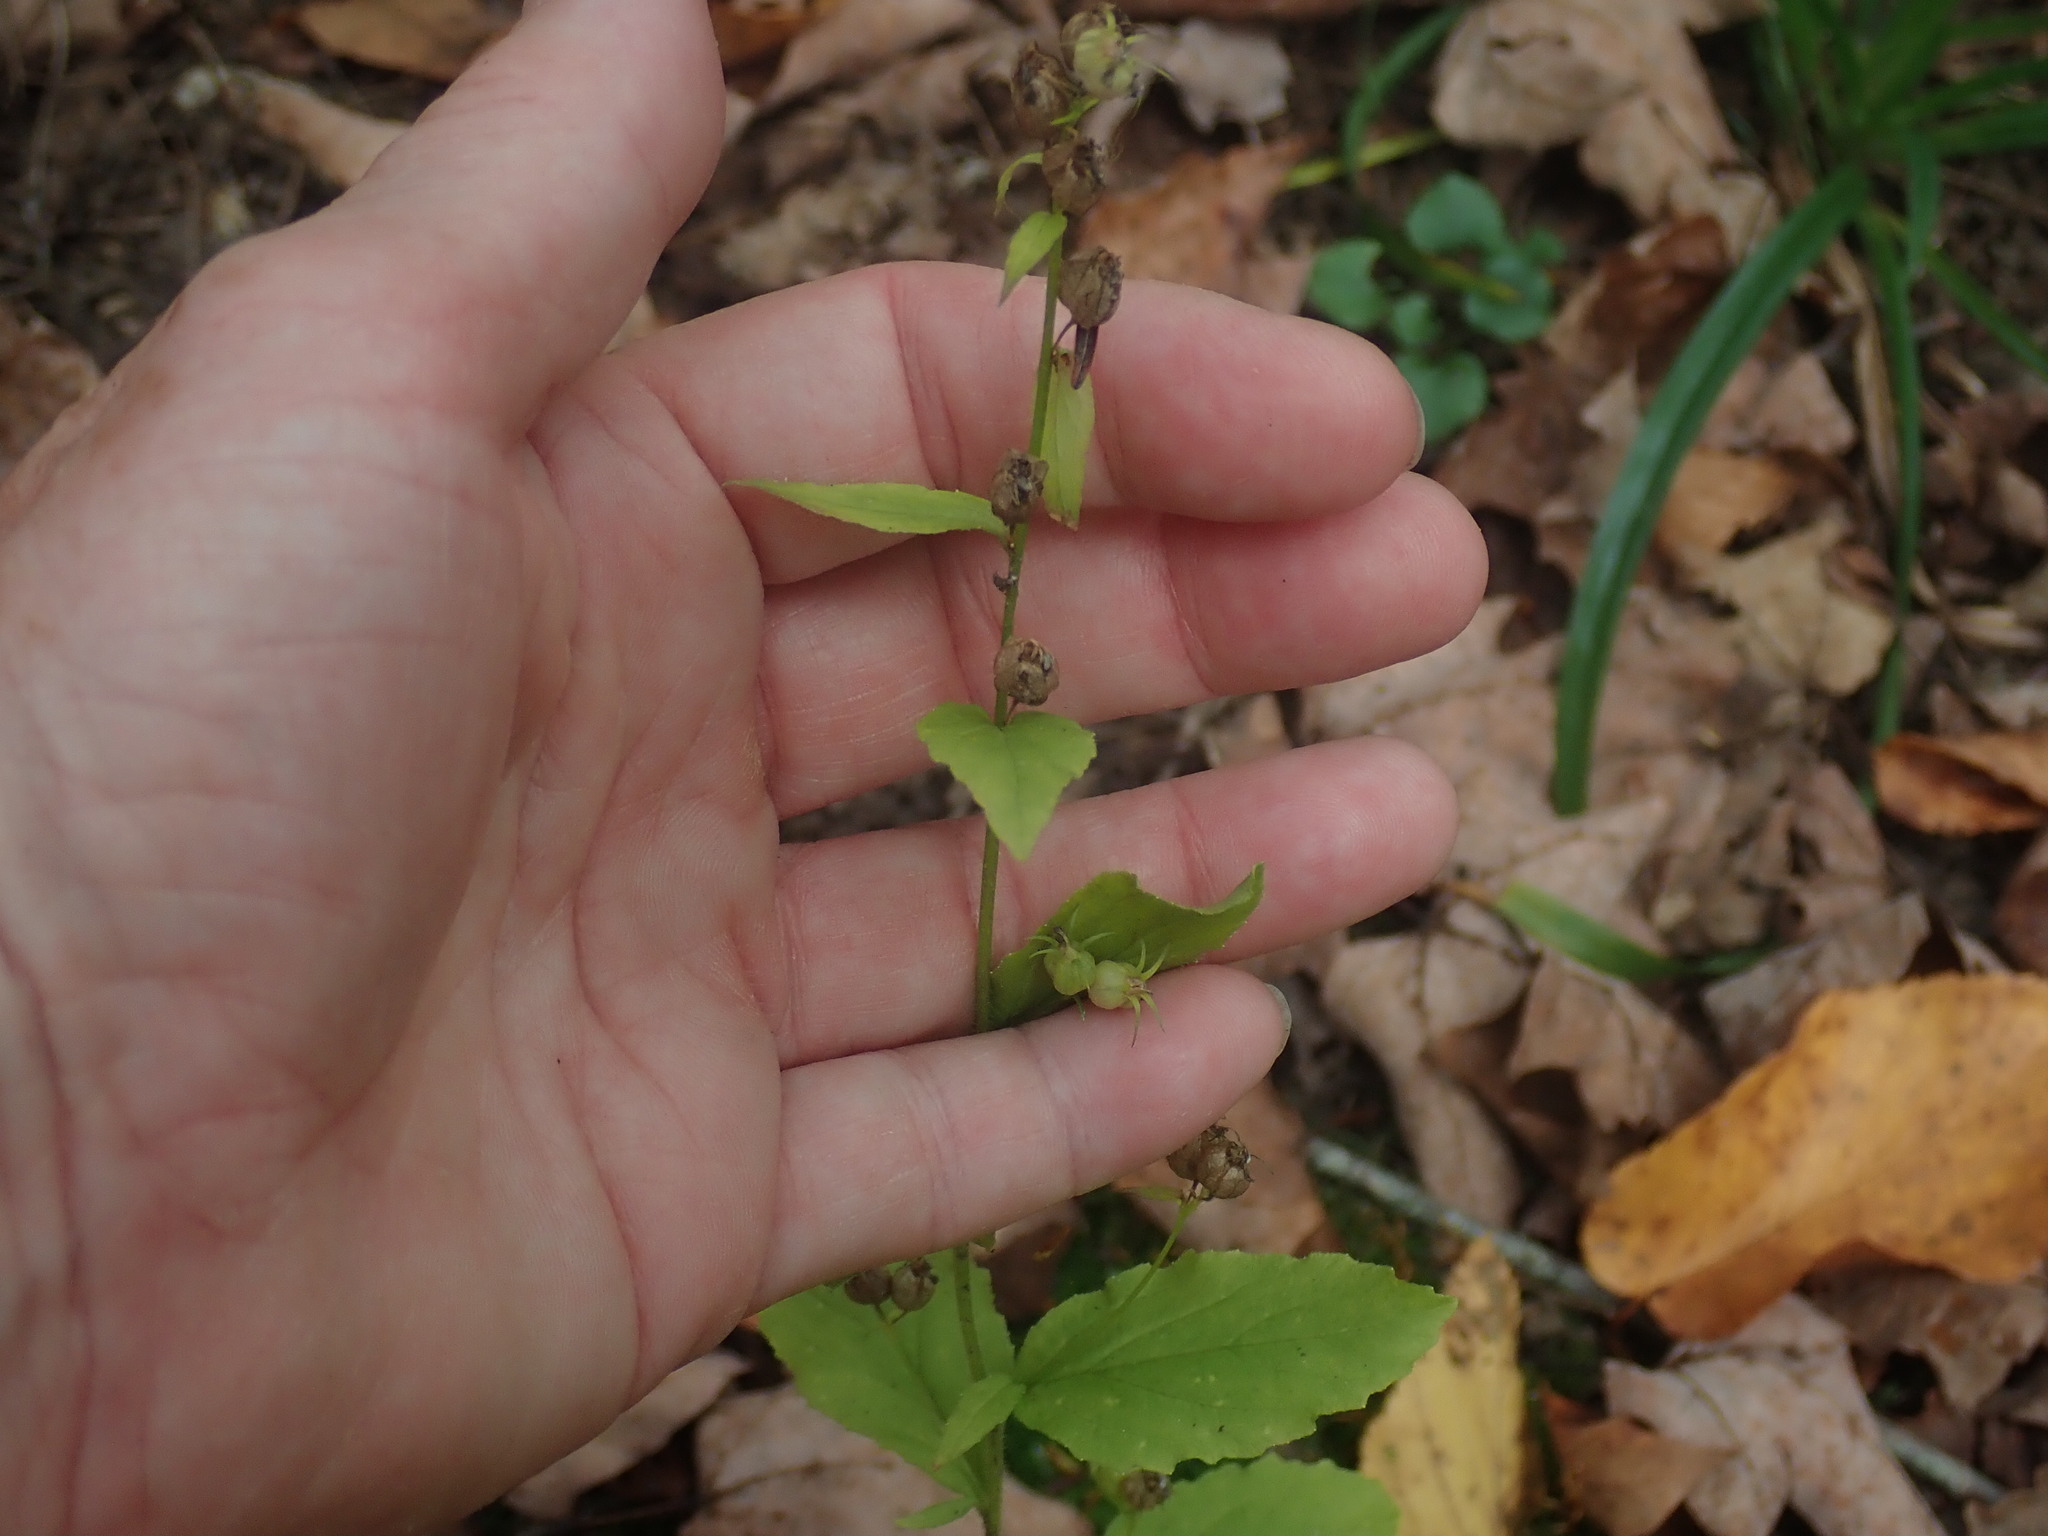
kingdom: Plantae
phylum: Tracheophyta
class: Magnoliopsida
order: Asterales
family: Campanulaceae
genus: Lobelia
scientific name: Lobelia inflata
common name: Indian tobacco
